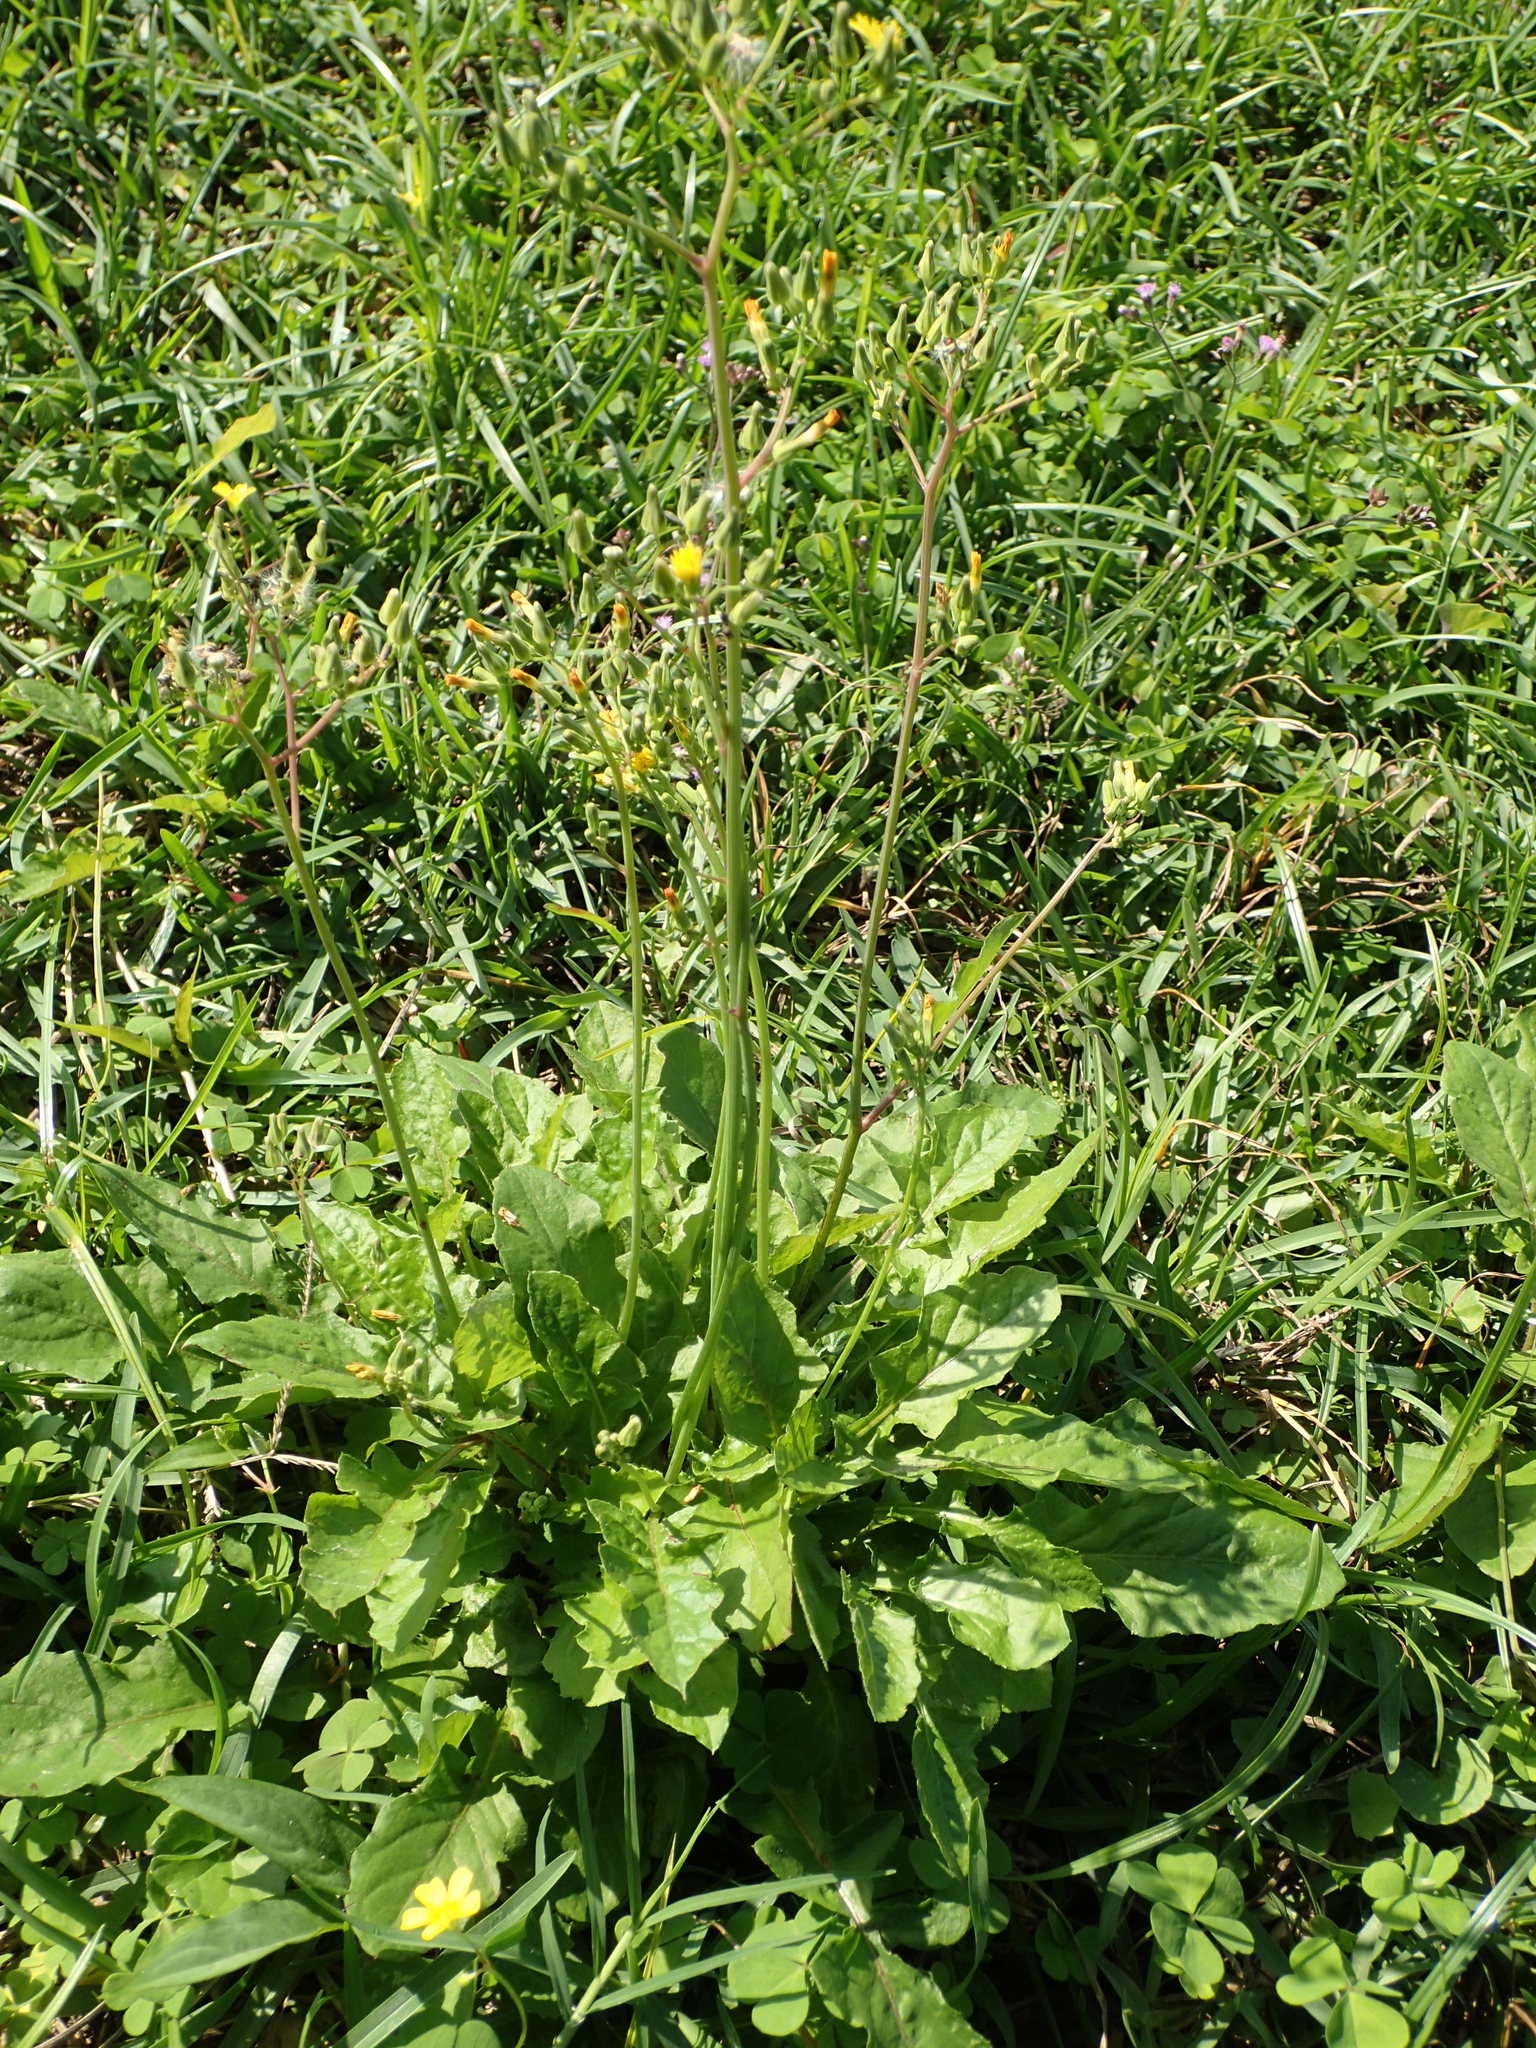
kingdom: Plantae
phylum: Tracheophyta
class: Magnoliopsida
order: Asterales
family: Asteraceae
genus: Youngia
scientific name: Youngia japonica
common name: Oriental false hawksbeard
